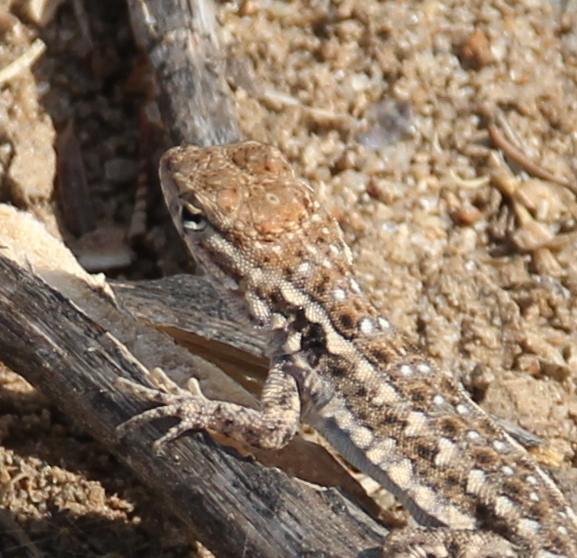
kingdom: Animalia
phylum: Chordata
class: Squamata
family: Phrynosomatidae
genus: Uta
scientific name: Uta stansburiana
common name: Side-blotched lizard
